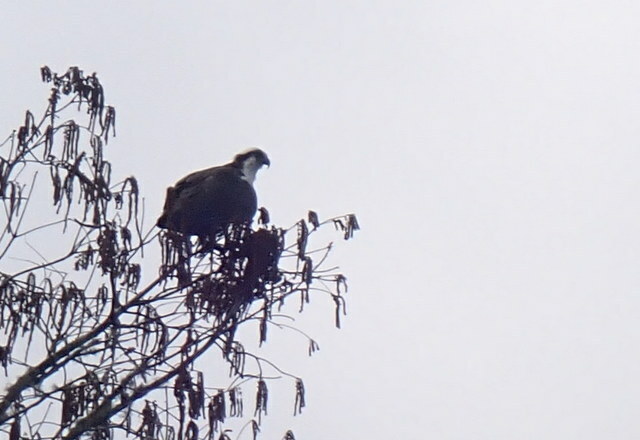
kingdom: Animalia
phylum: Chordata
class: Aves
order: Accipitriformes
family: Pandionidae
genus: Pandion
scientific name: Pandion haliaetus
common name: Osprey
